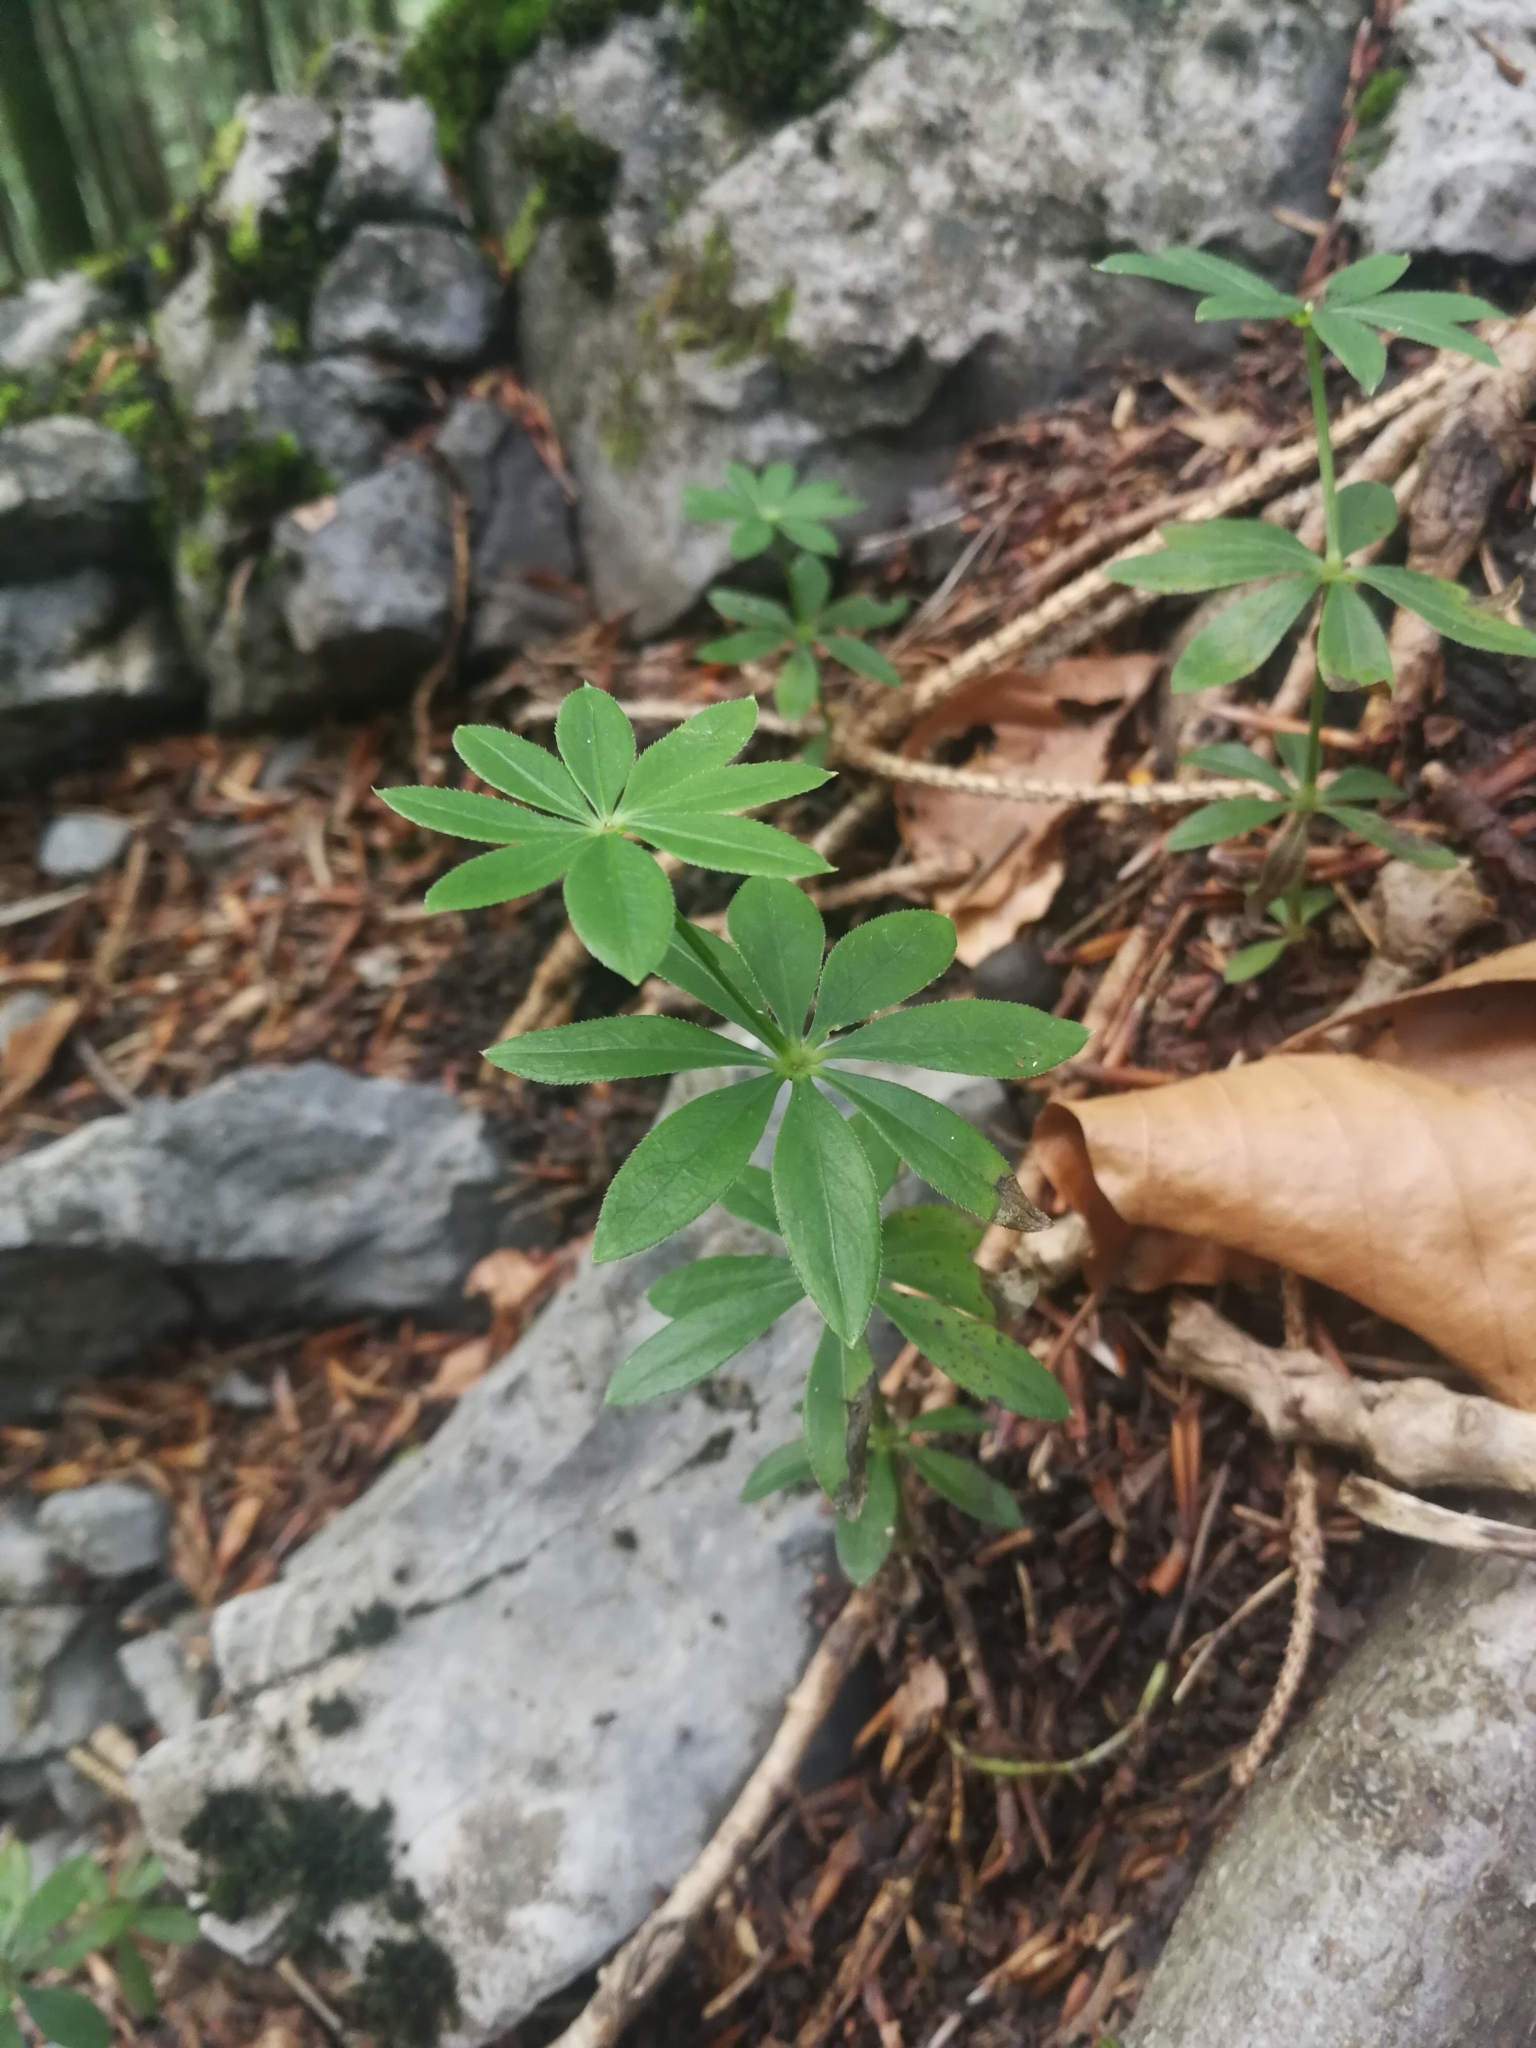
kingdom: Plantae
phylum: Tracheophyta
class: Magnoliopsida
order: Gentianales
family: Rubiaceae
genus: Galium
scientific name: Galium odoratum
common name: Sweet woodruff
